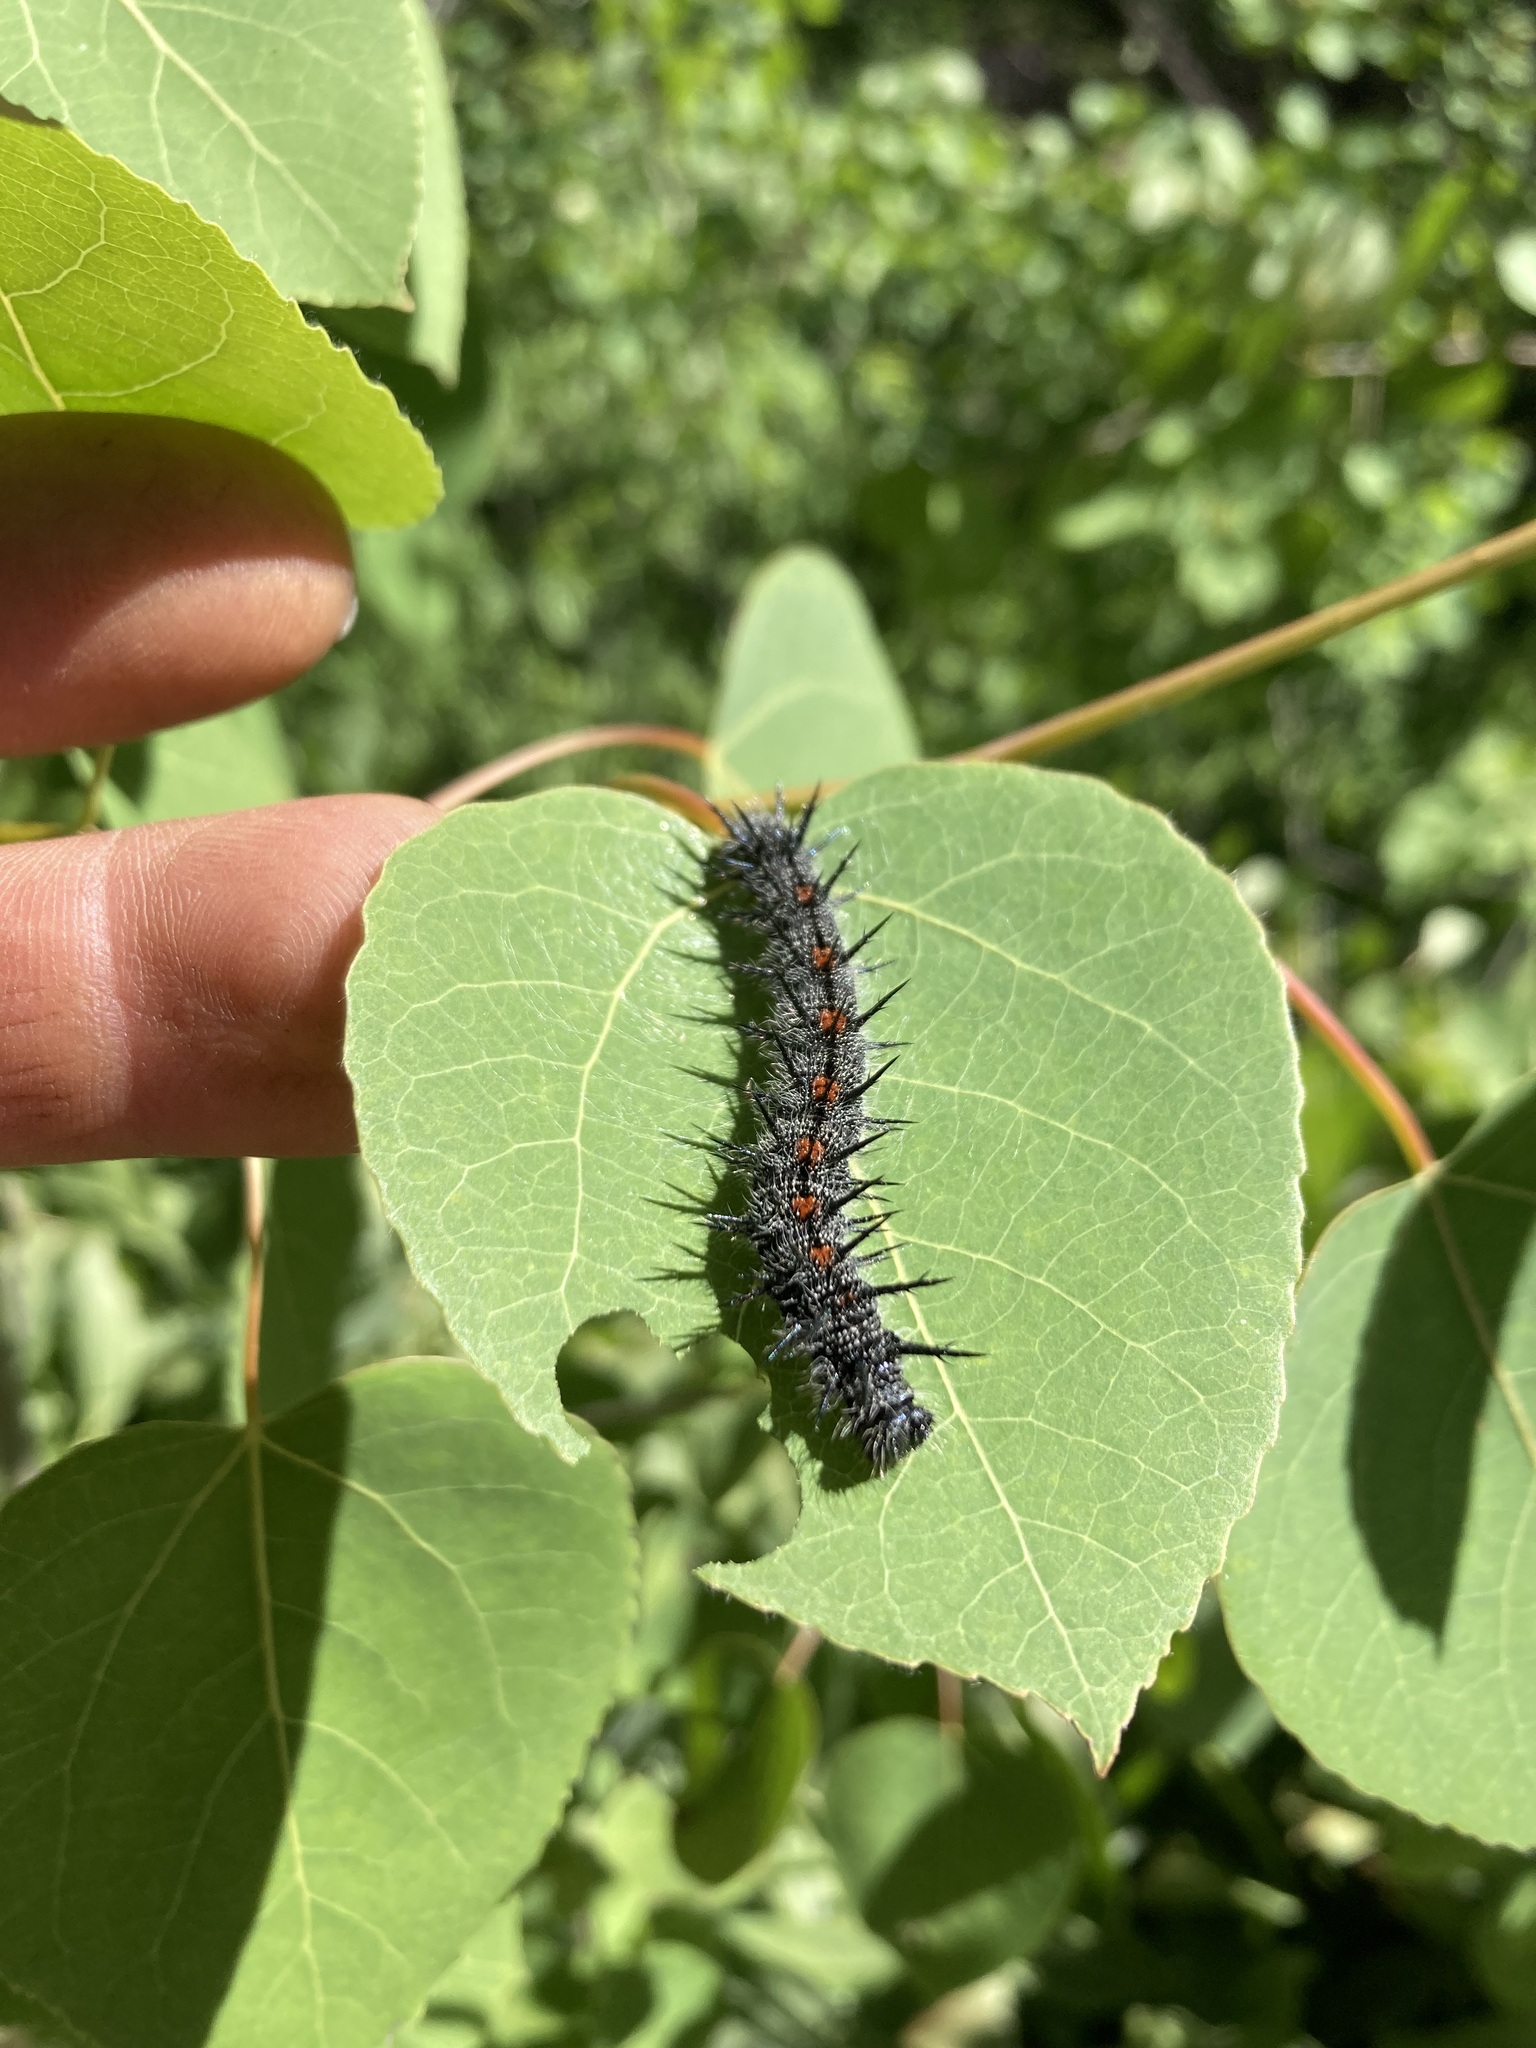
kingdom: Animalia
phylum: Arthropoda
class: Insecta
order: Lepidoptera
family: Nymphalidae
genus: Nymphalis
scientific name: Nymphalis antiopa
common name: Camberwell beauty
